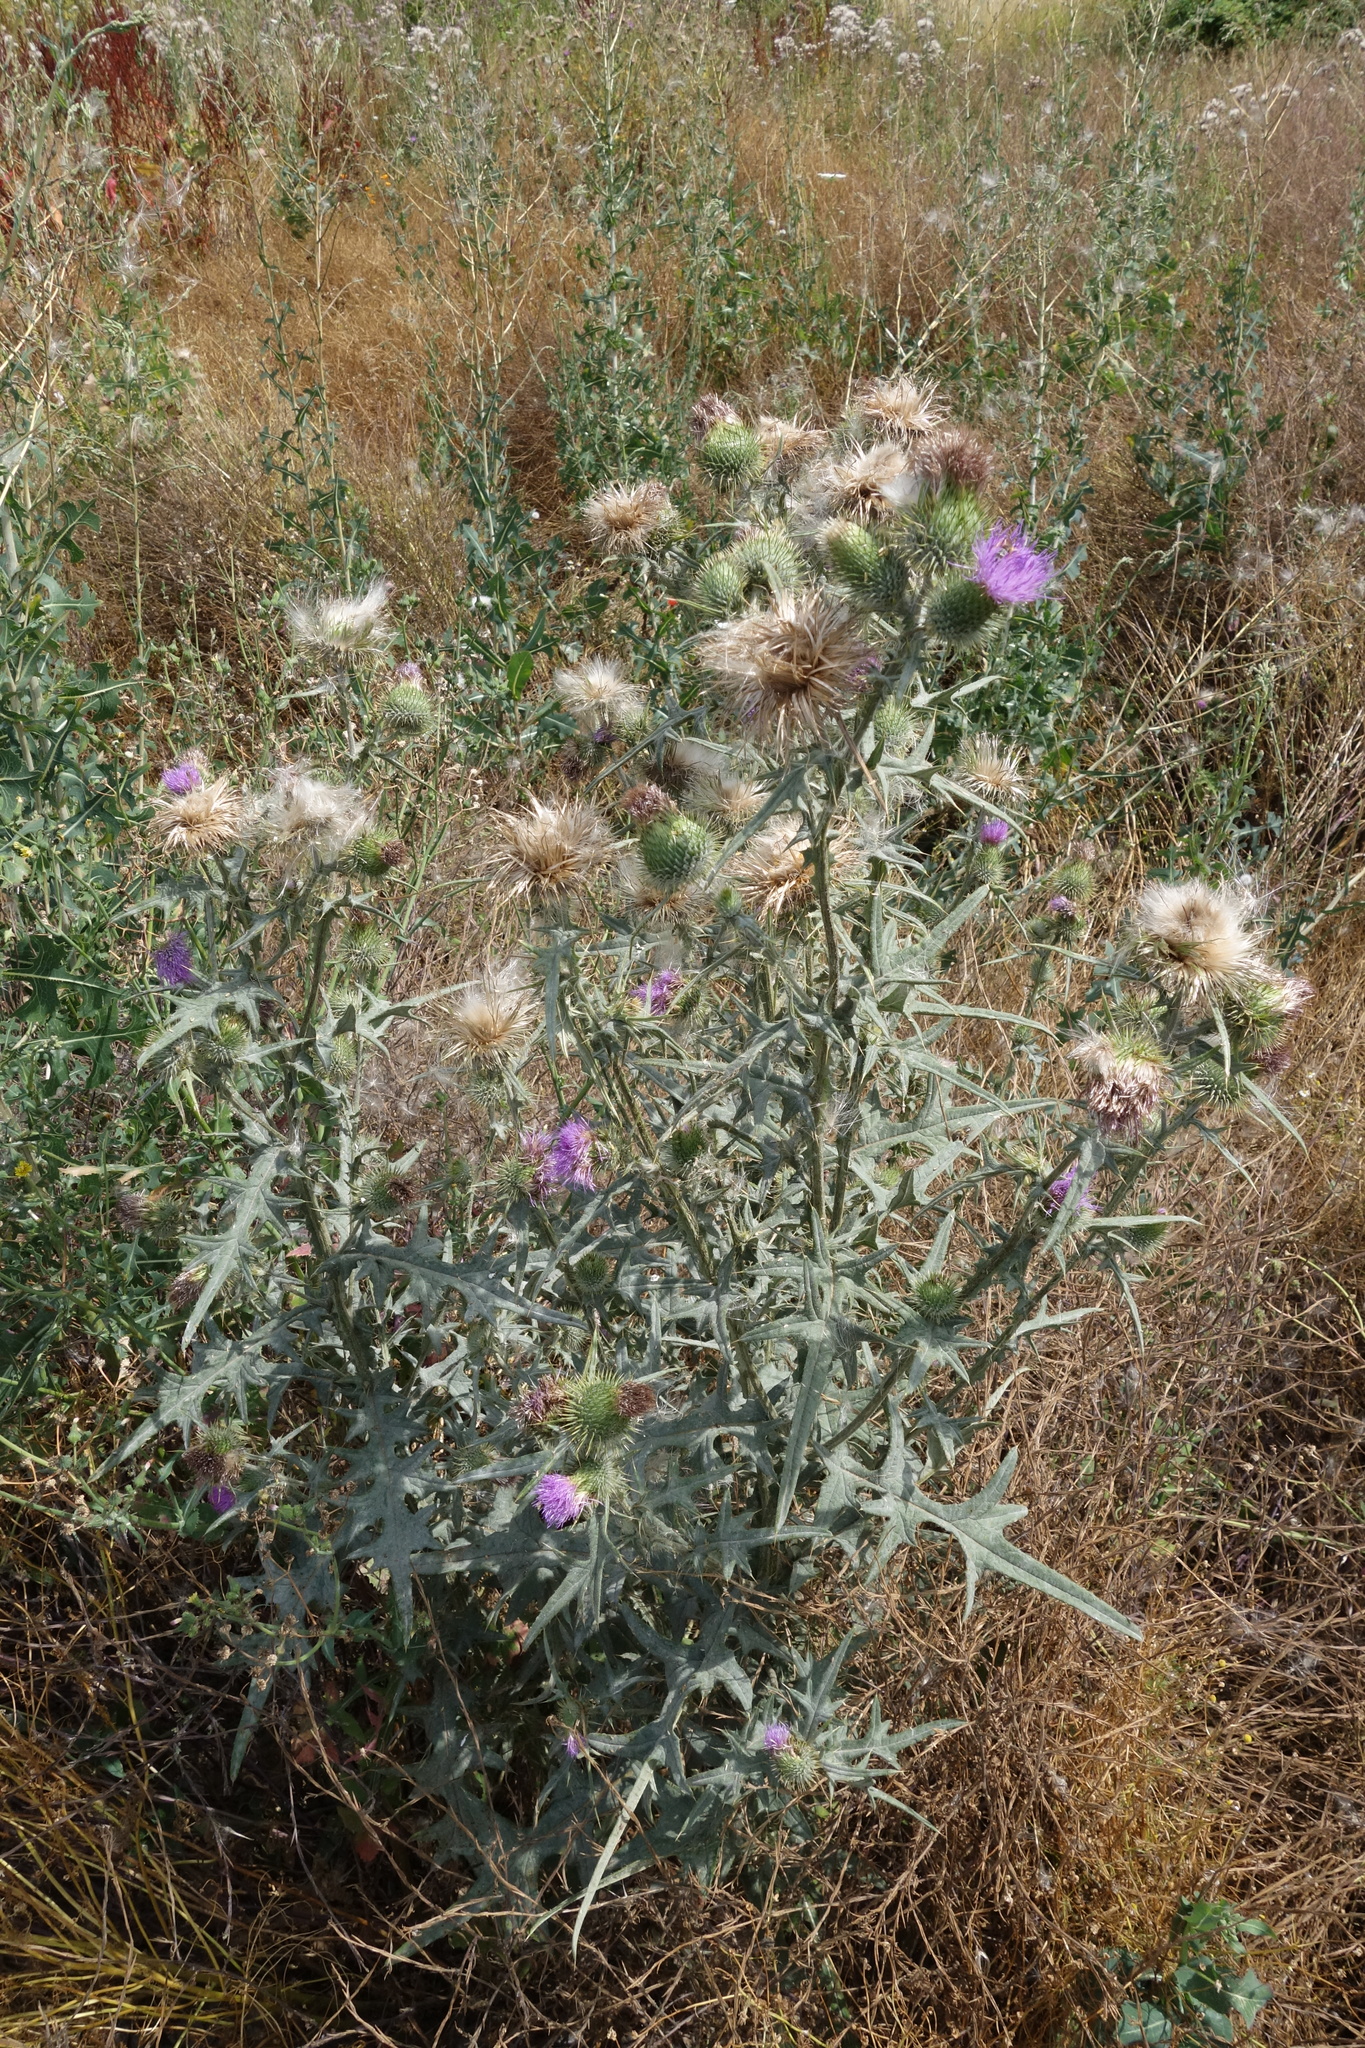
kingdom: Plantae
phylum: Tracheophyta
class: Magnoliopsida
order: Asterales
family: Asteraceae
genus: Cirsium
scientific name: Cirsium vulgare
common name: Bull thistle
